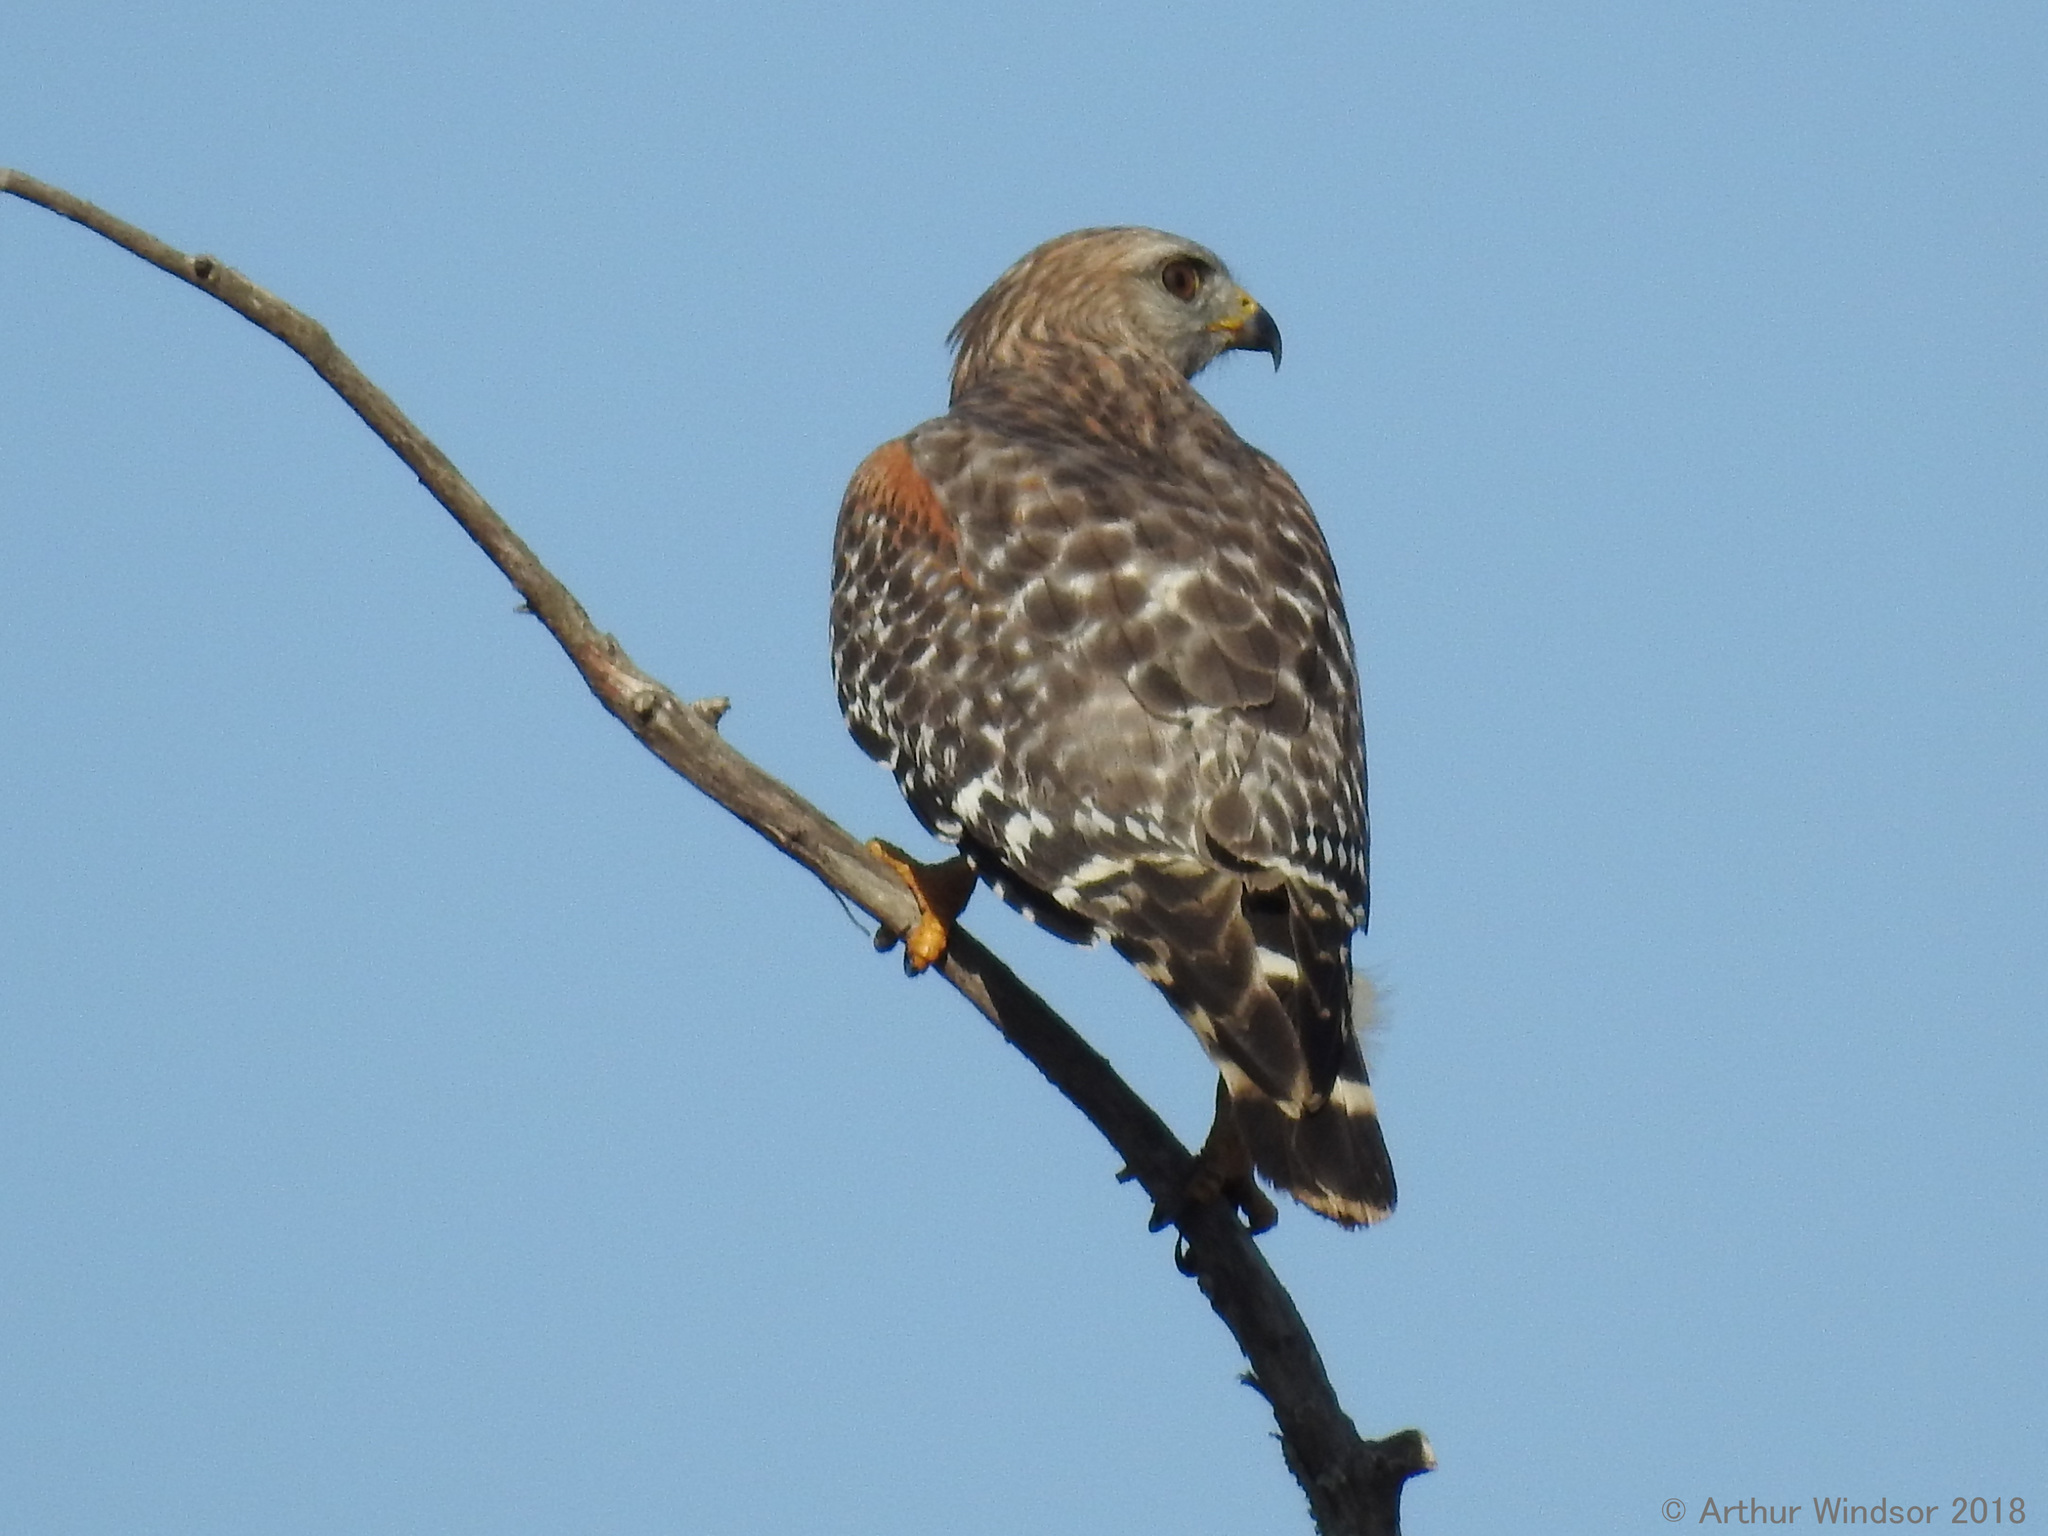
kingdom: Animalia
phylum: Chordata
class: Aves
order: Accipitriformes
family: Accipitridae
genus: Buteo
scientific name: Buteo lineatus
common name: Red-shouldered hawk
